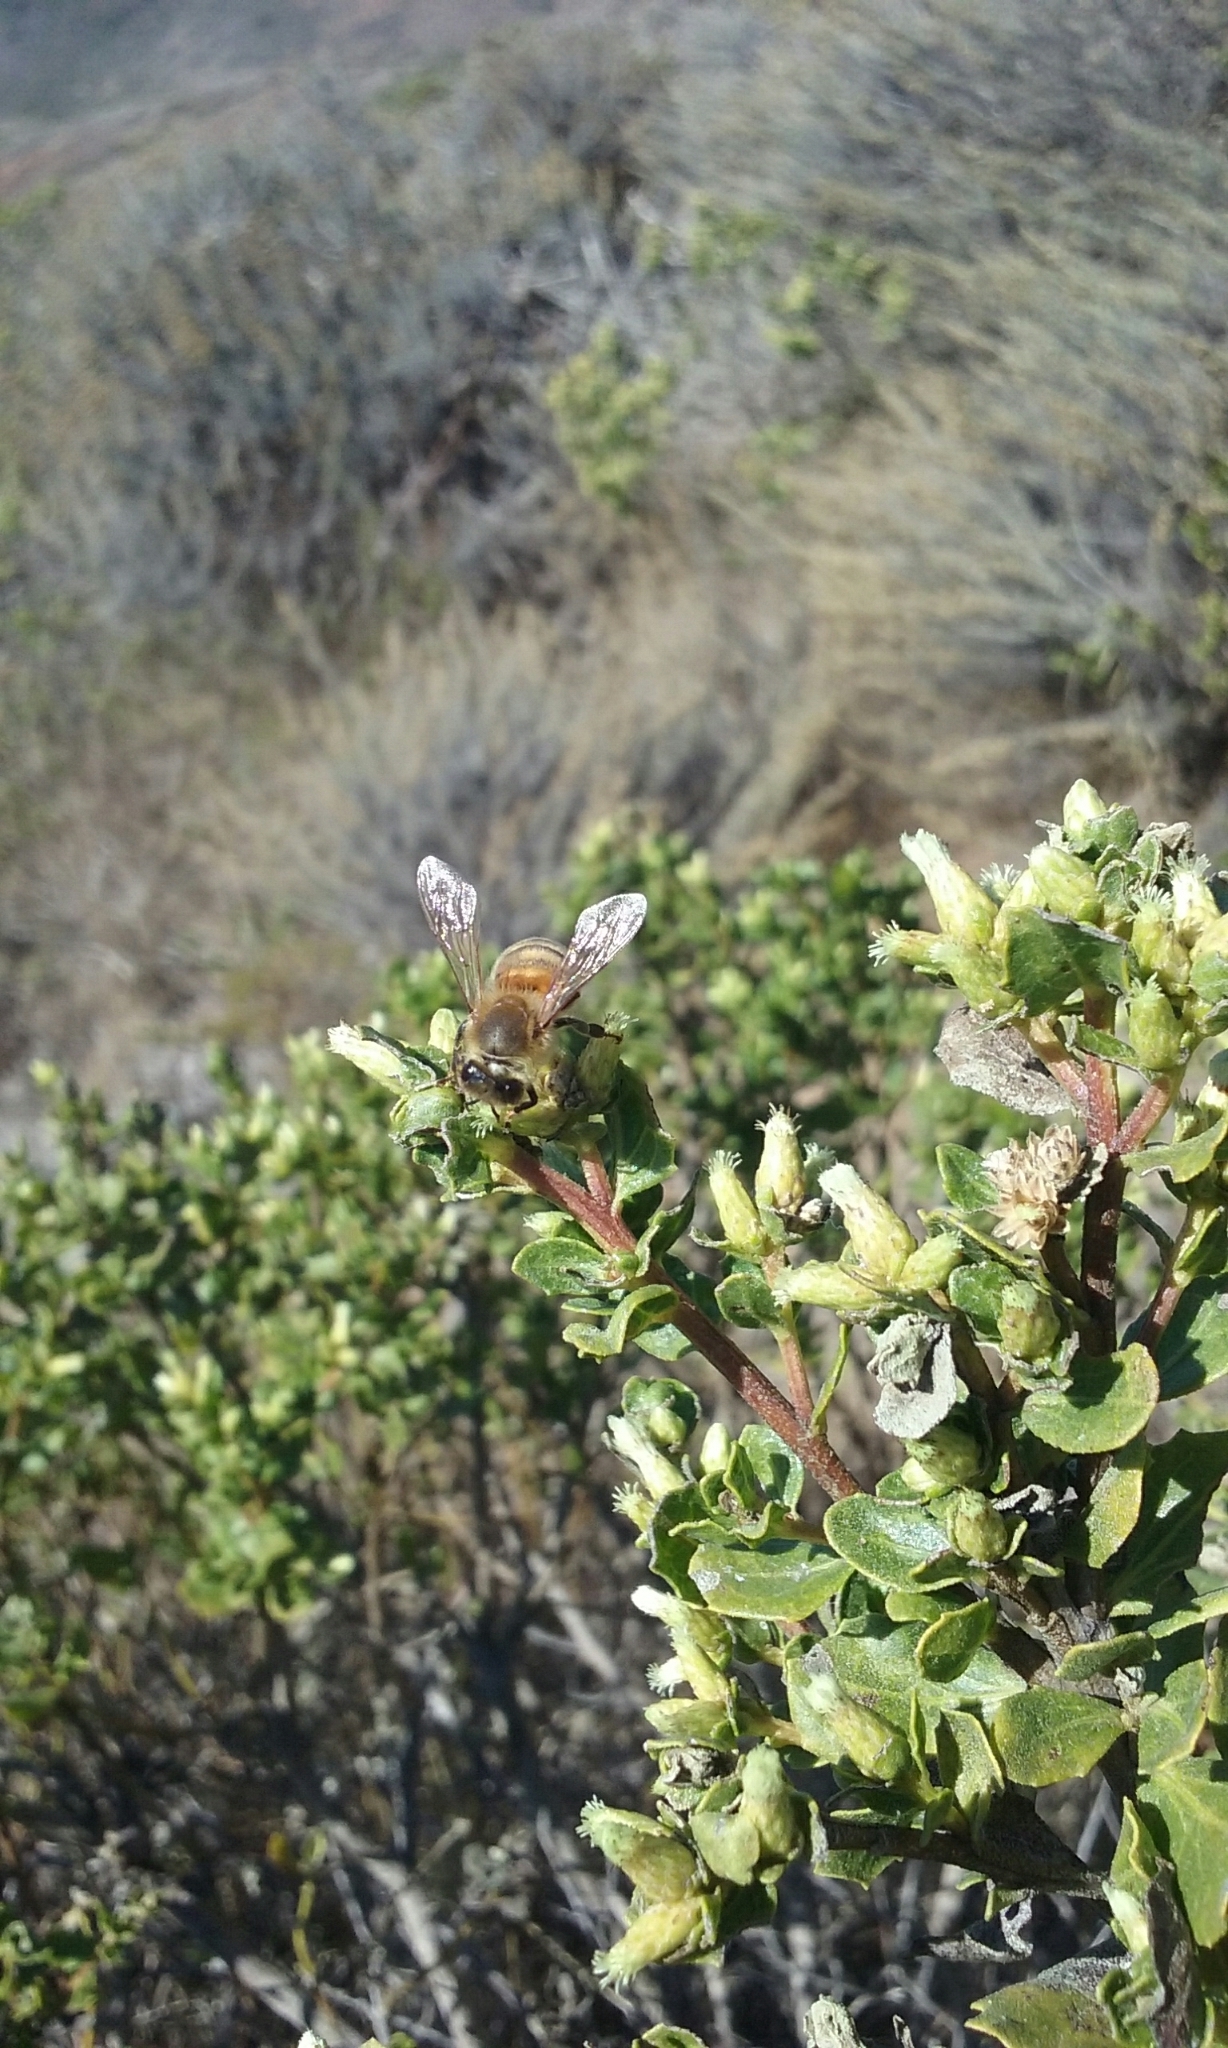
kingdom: Animalia
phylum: Arthropoda
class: Insecta
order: Hymenoptera
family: Apidae
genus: Apis
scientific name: Apis mellifera
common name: Honey bee
